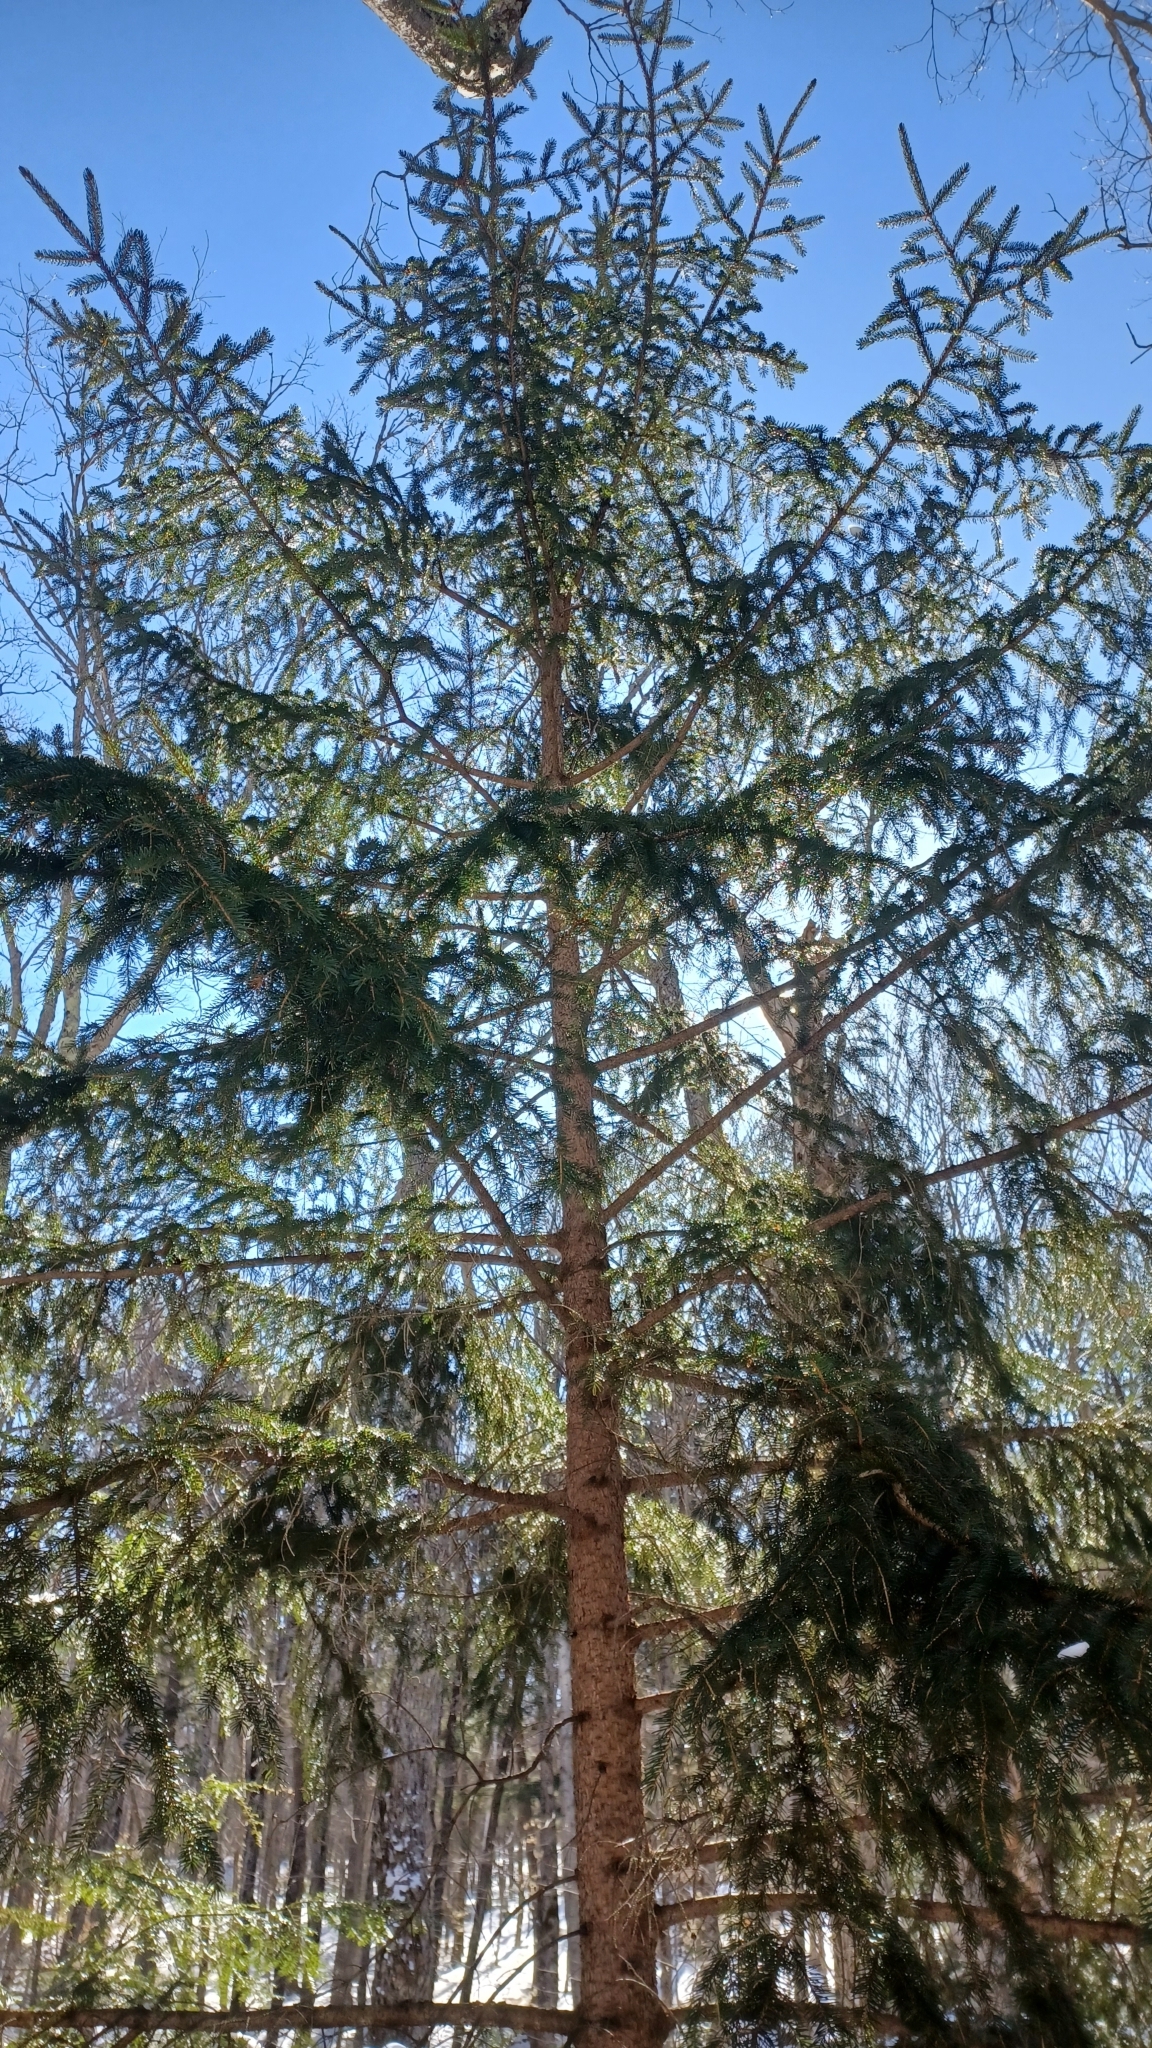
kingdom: Plantae
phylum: Tracheophyta
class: Pinopsida
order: Pinales
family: Pinaceae
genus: Picea
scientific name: Picea rubens
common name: Red spruce
